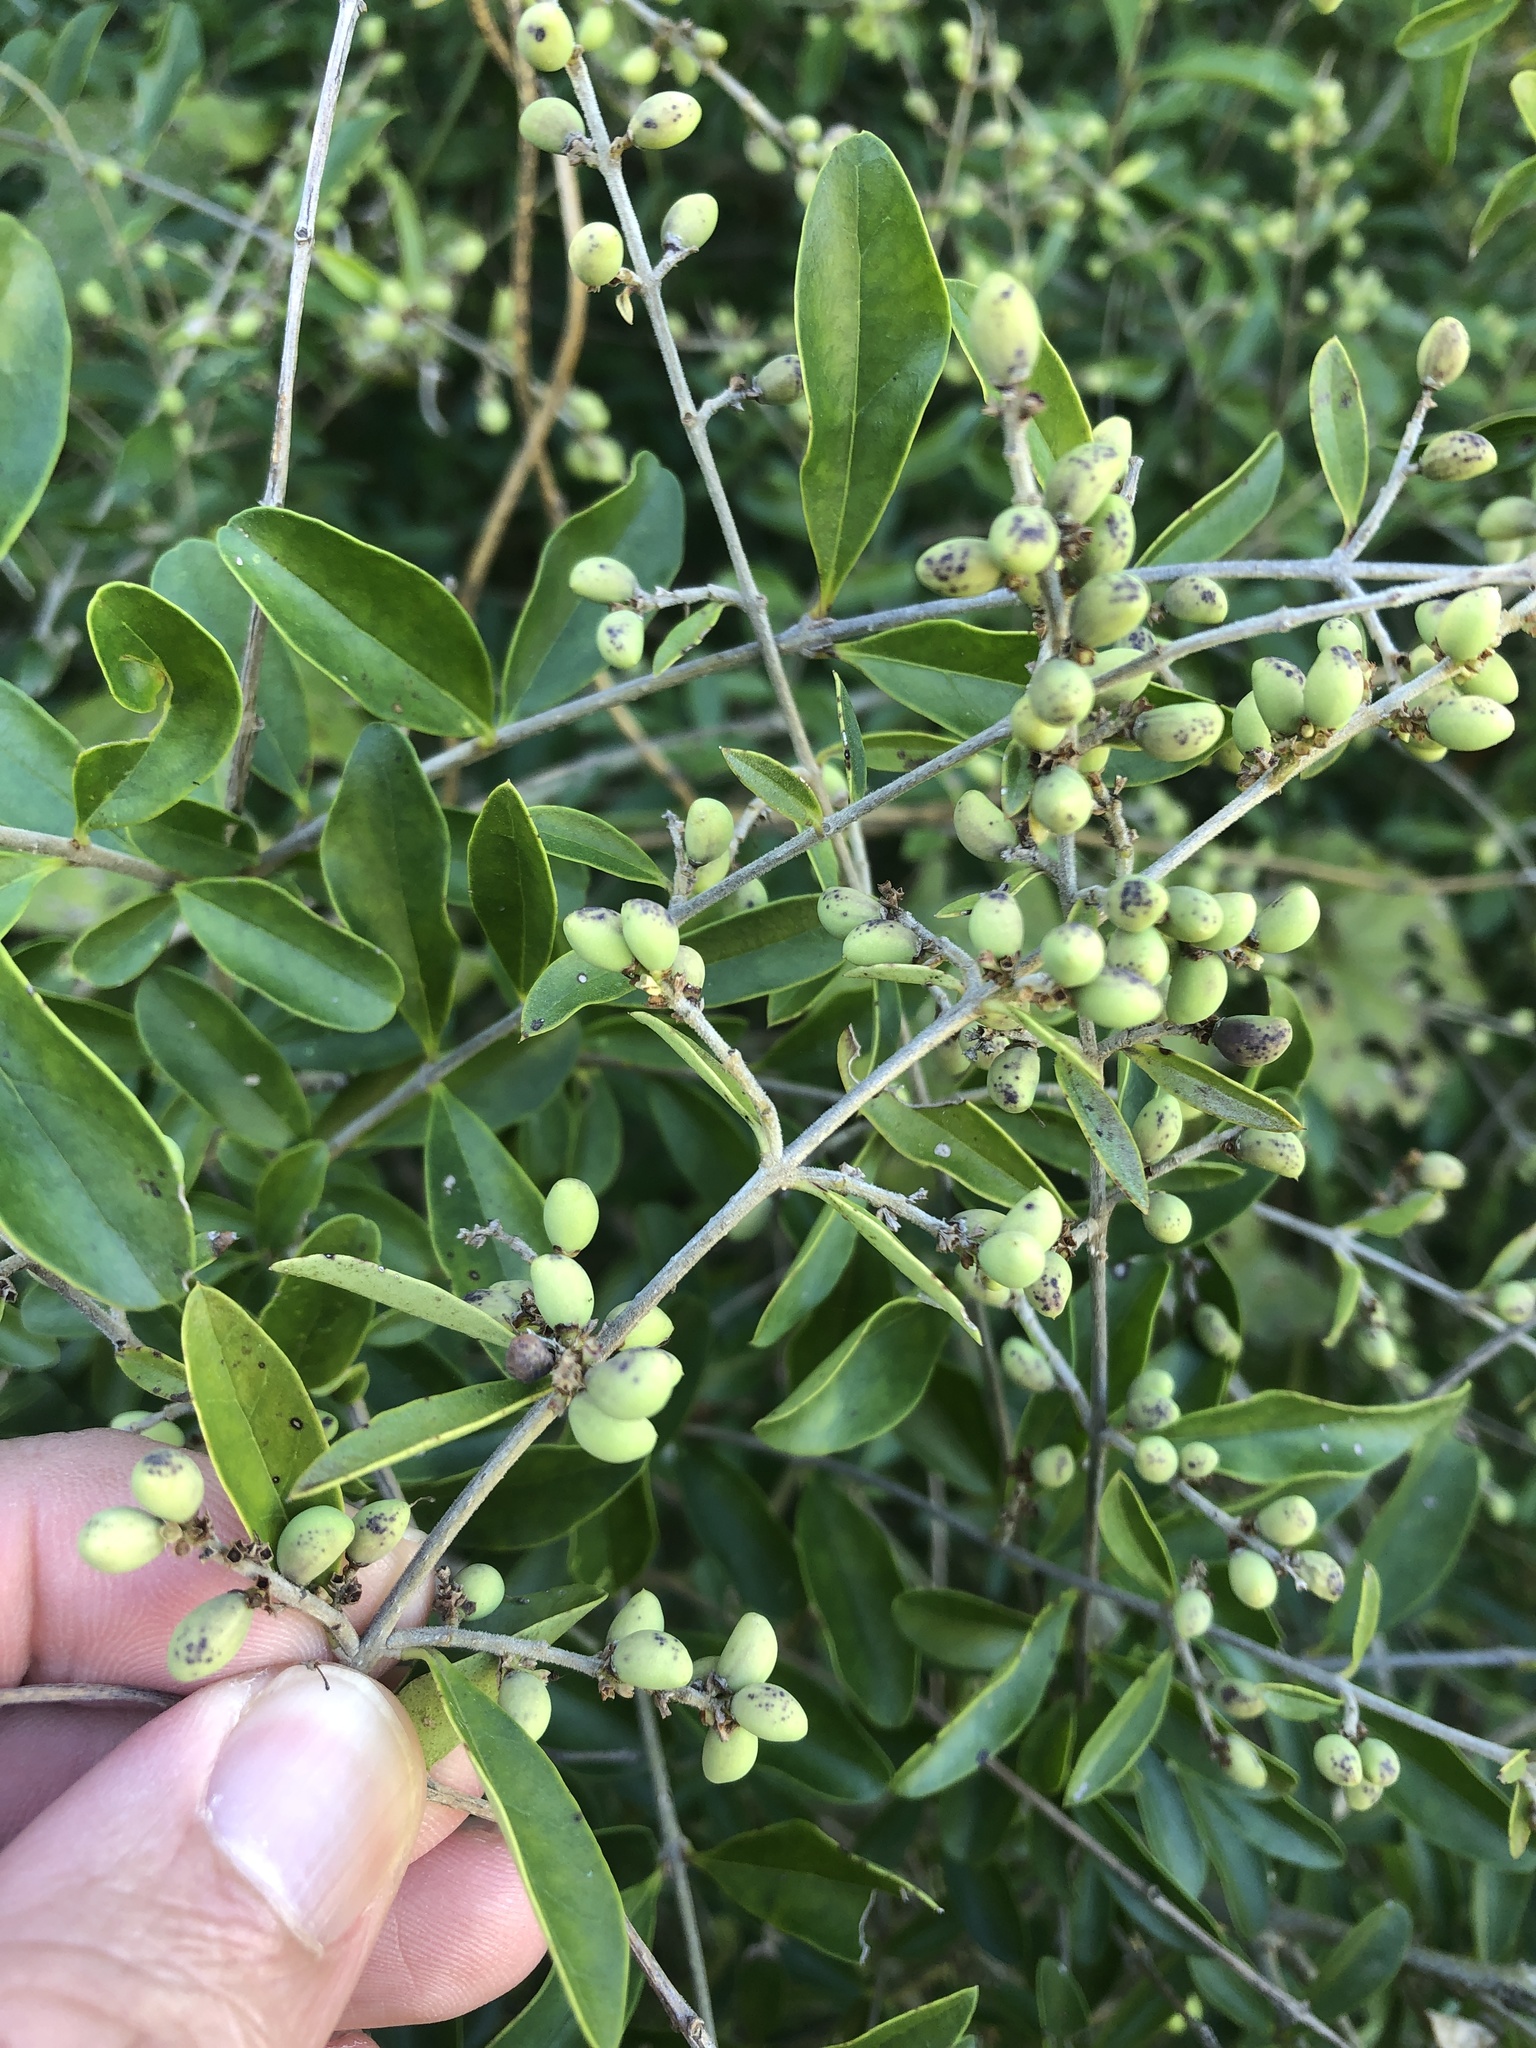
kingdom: Plantae
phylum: Tracheophyta
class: Magnoliopsida
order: Lamiales
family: Oleaceae
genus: Ligustrum
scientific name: Ligustrum quihoui
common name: Waxyleaf privet
